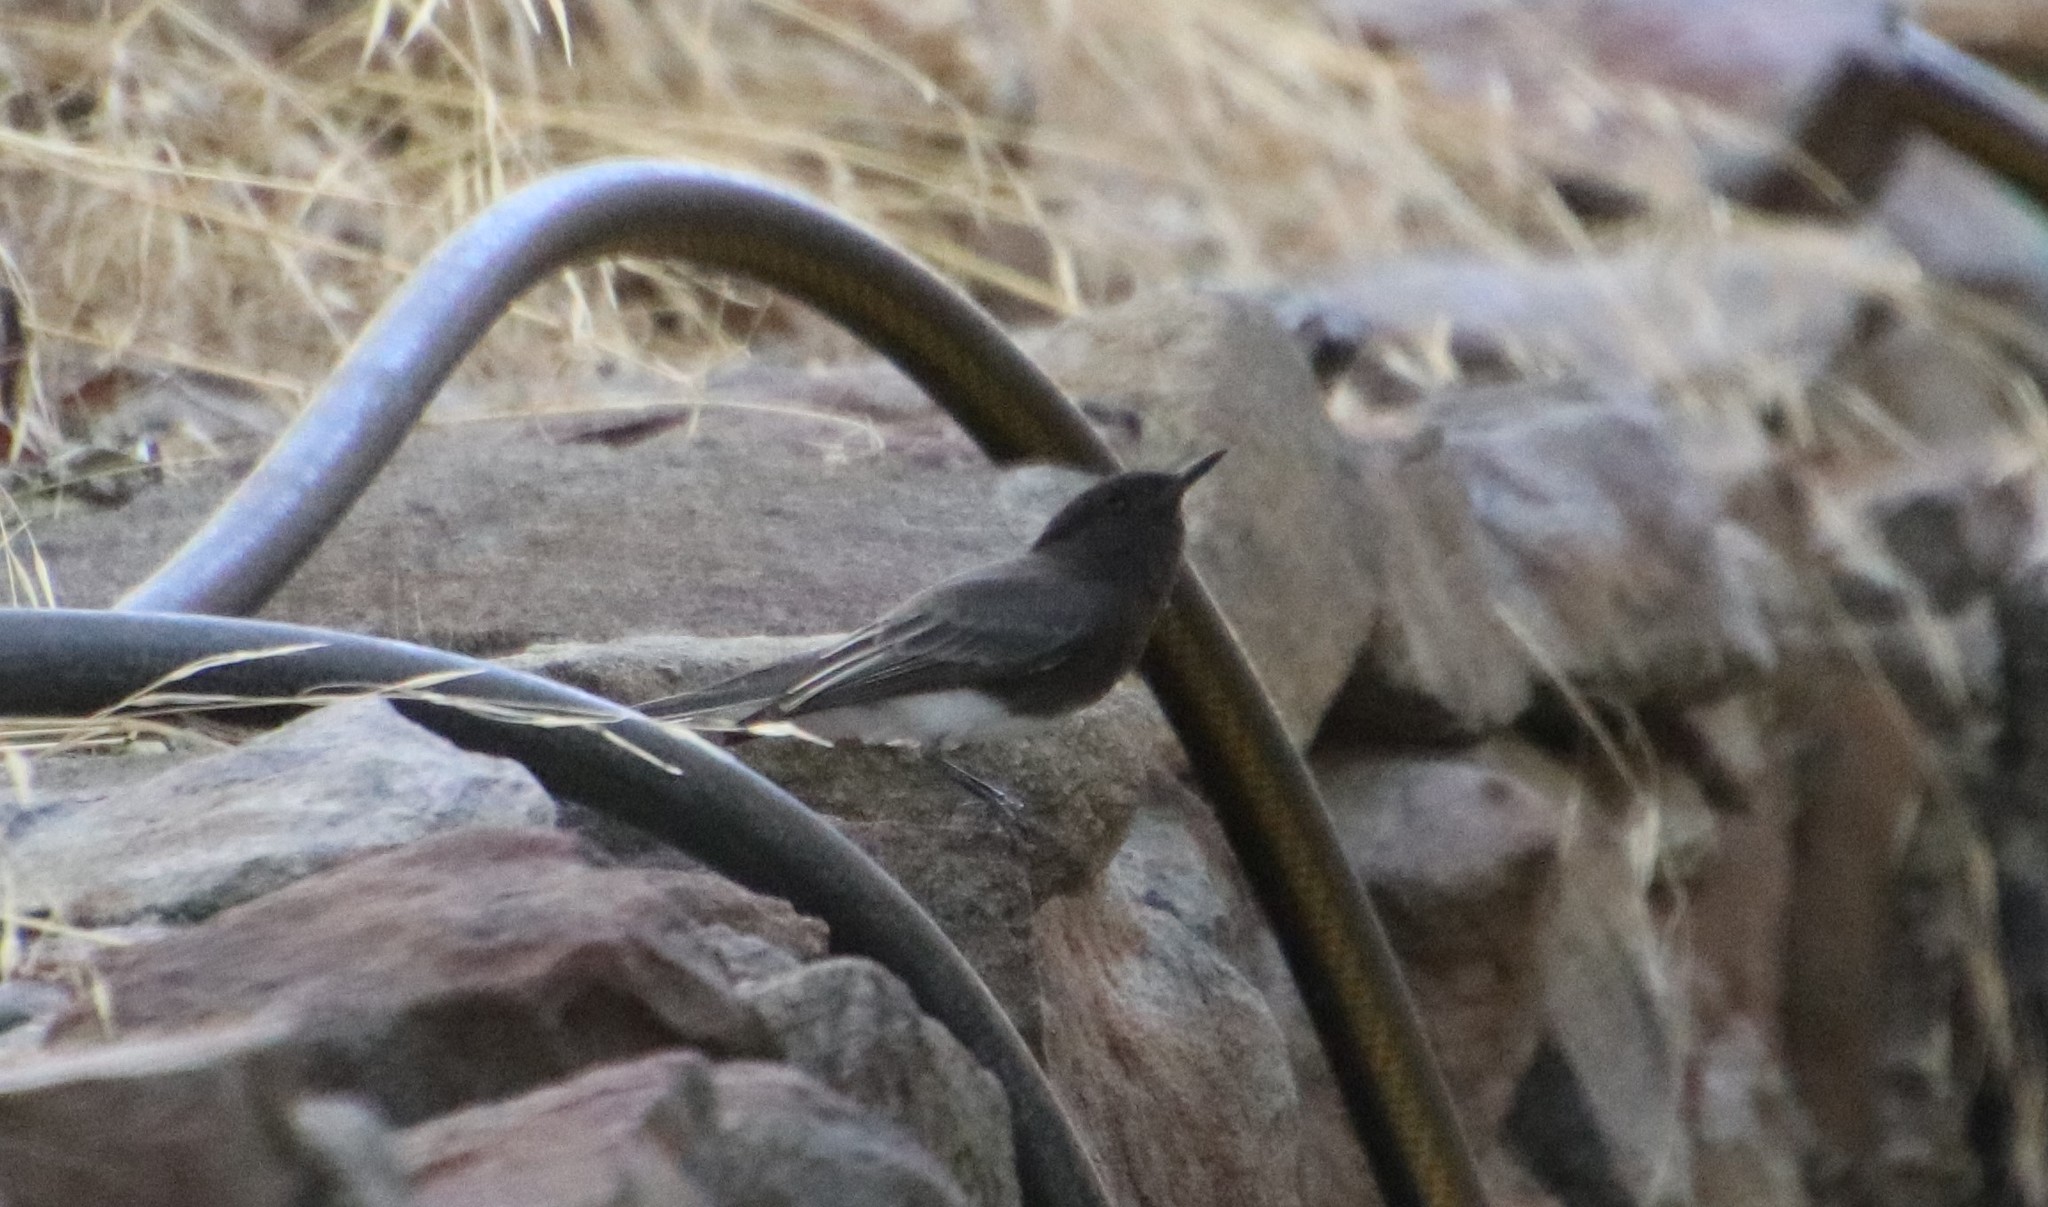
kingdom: Animalia
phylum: Chordata
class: Aves
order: Passeriformes
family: Tyrannidae
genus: Sayornis
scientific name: Sayornis nigricans
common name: Black phoebe
